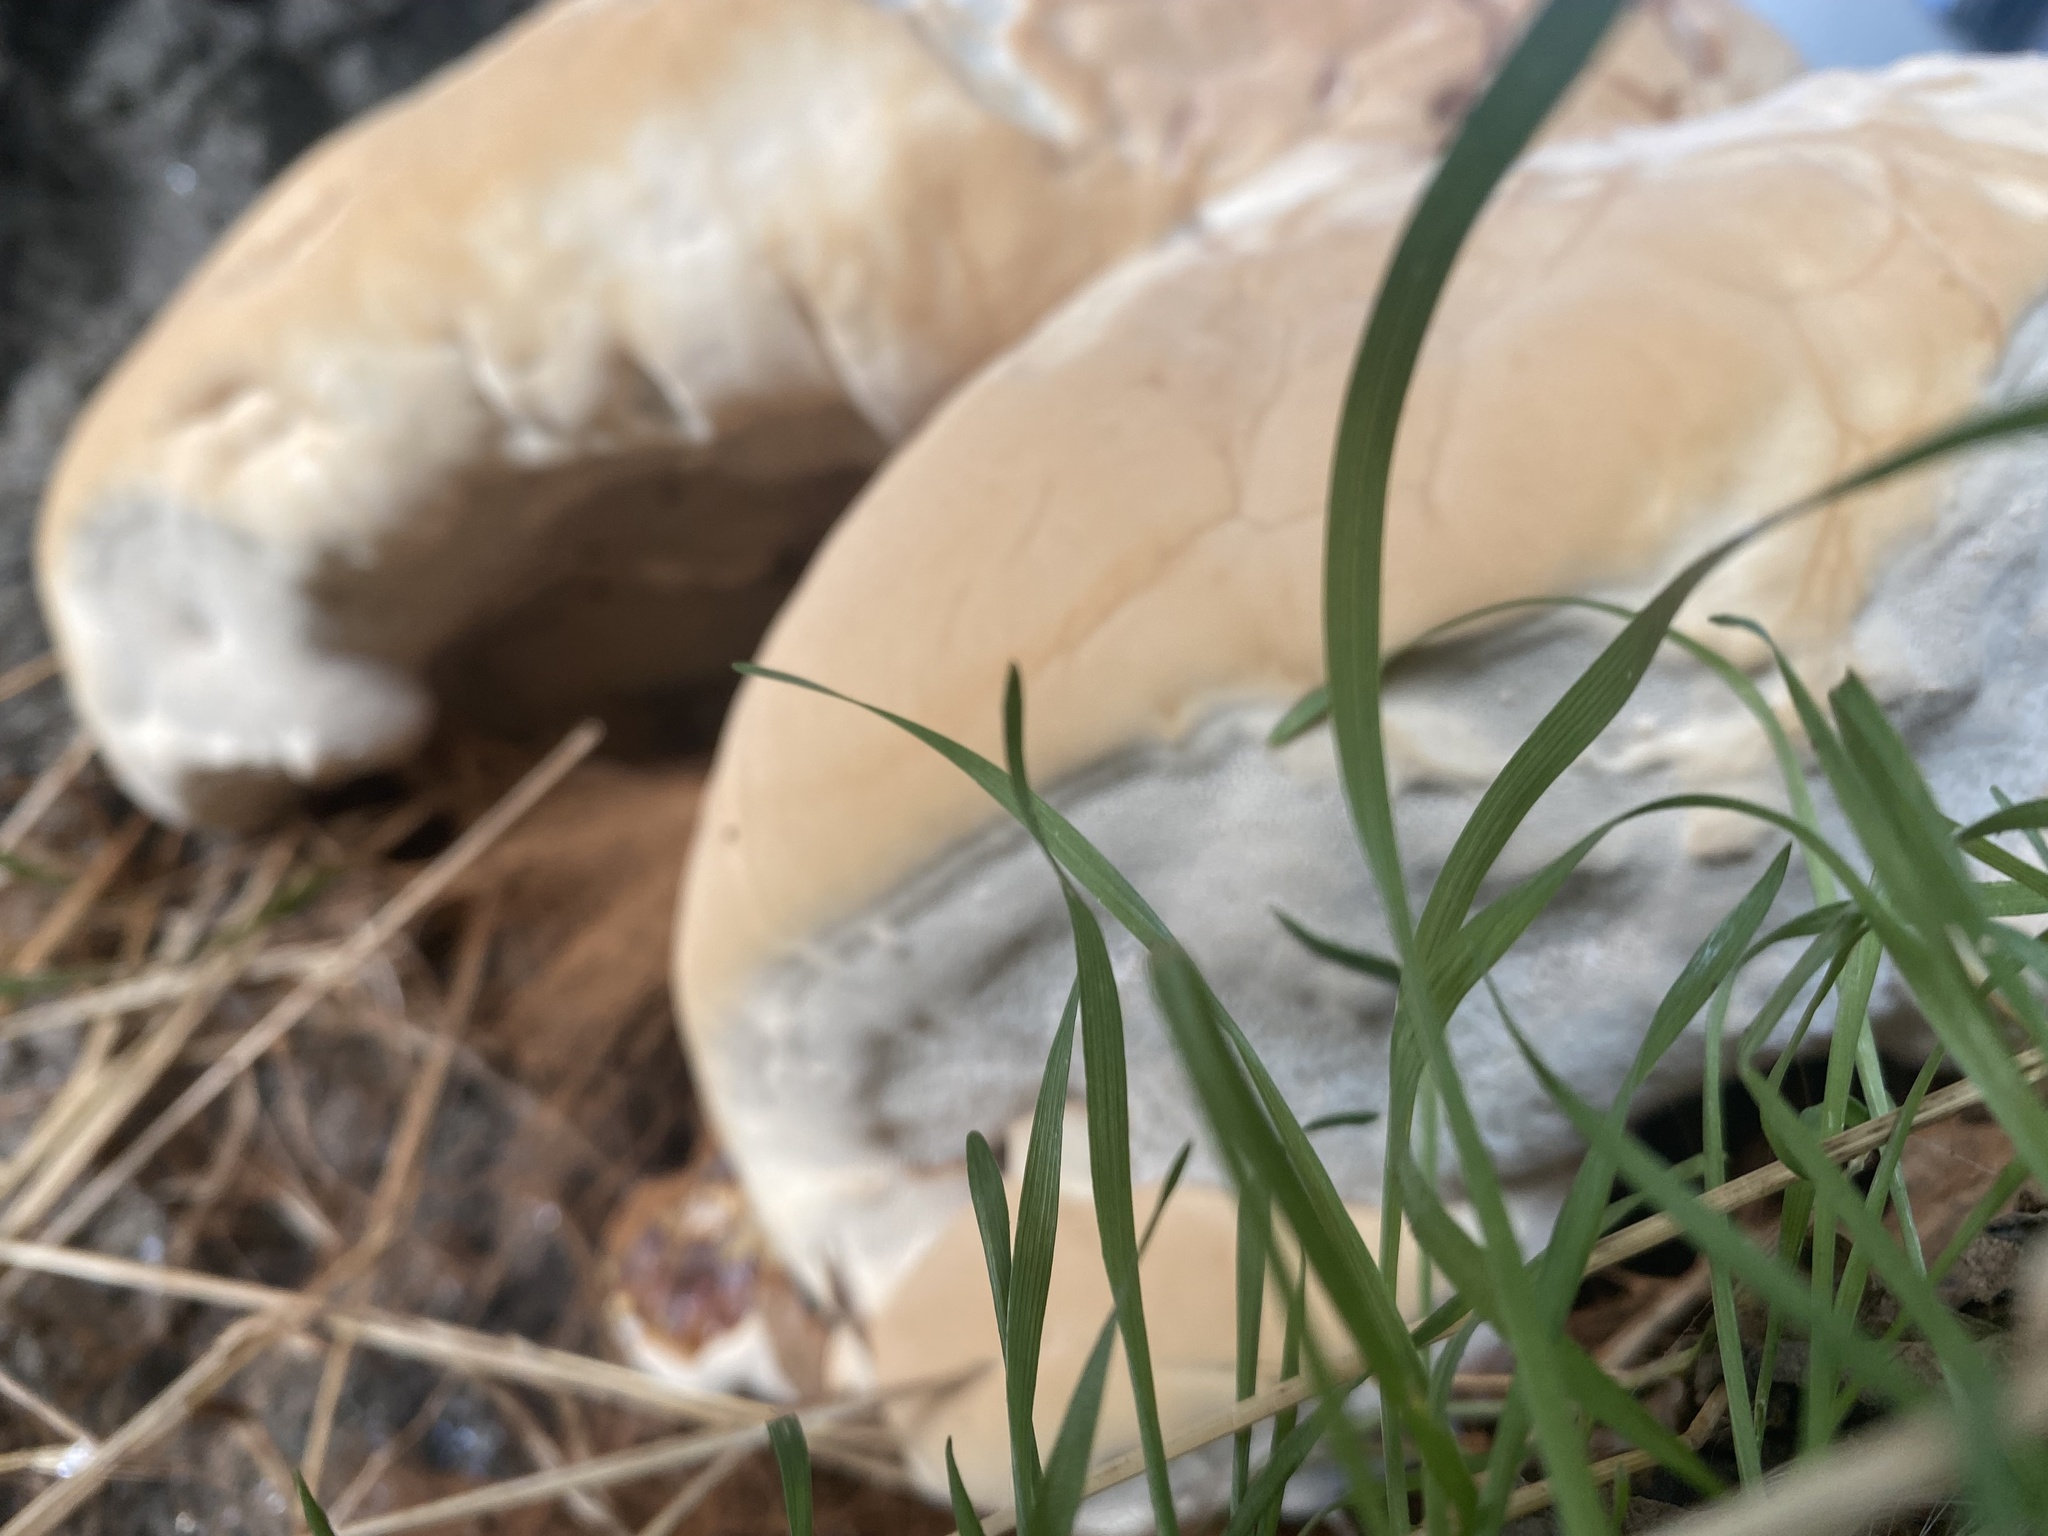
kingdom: Fungi
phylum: Basidiomycota
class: Agaricomycetes
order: Polyporales
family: Polyporaceae
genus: Ganoderma
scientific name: Ganoderma resinaceum
